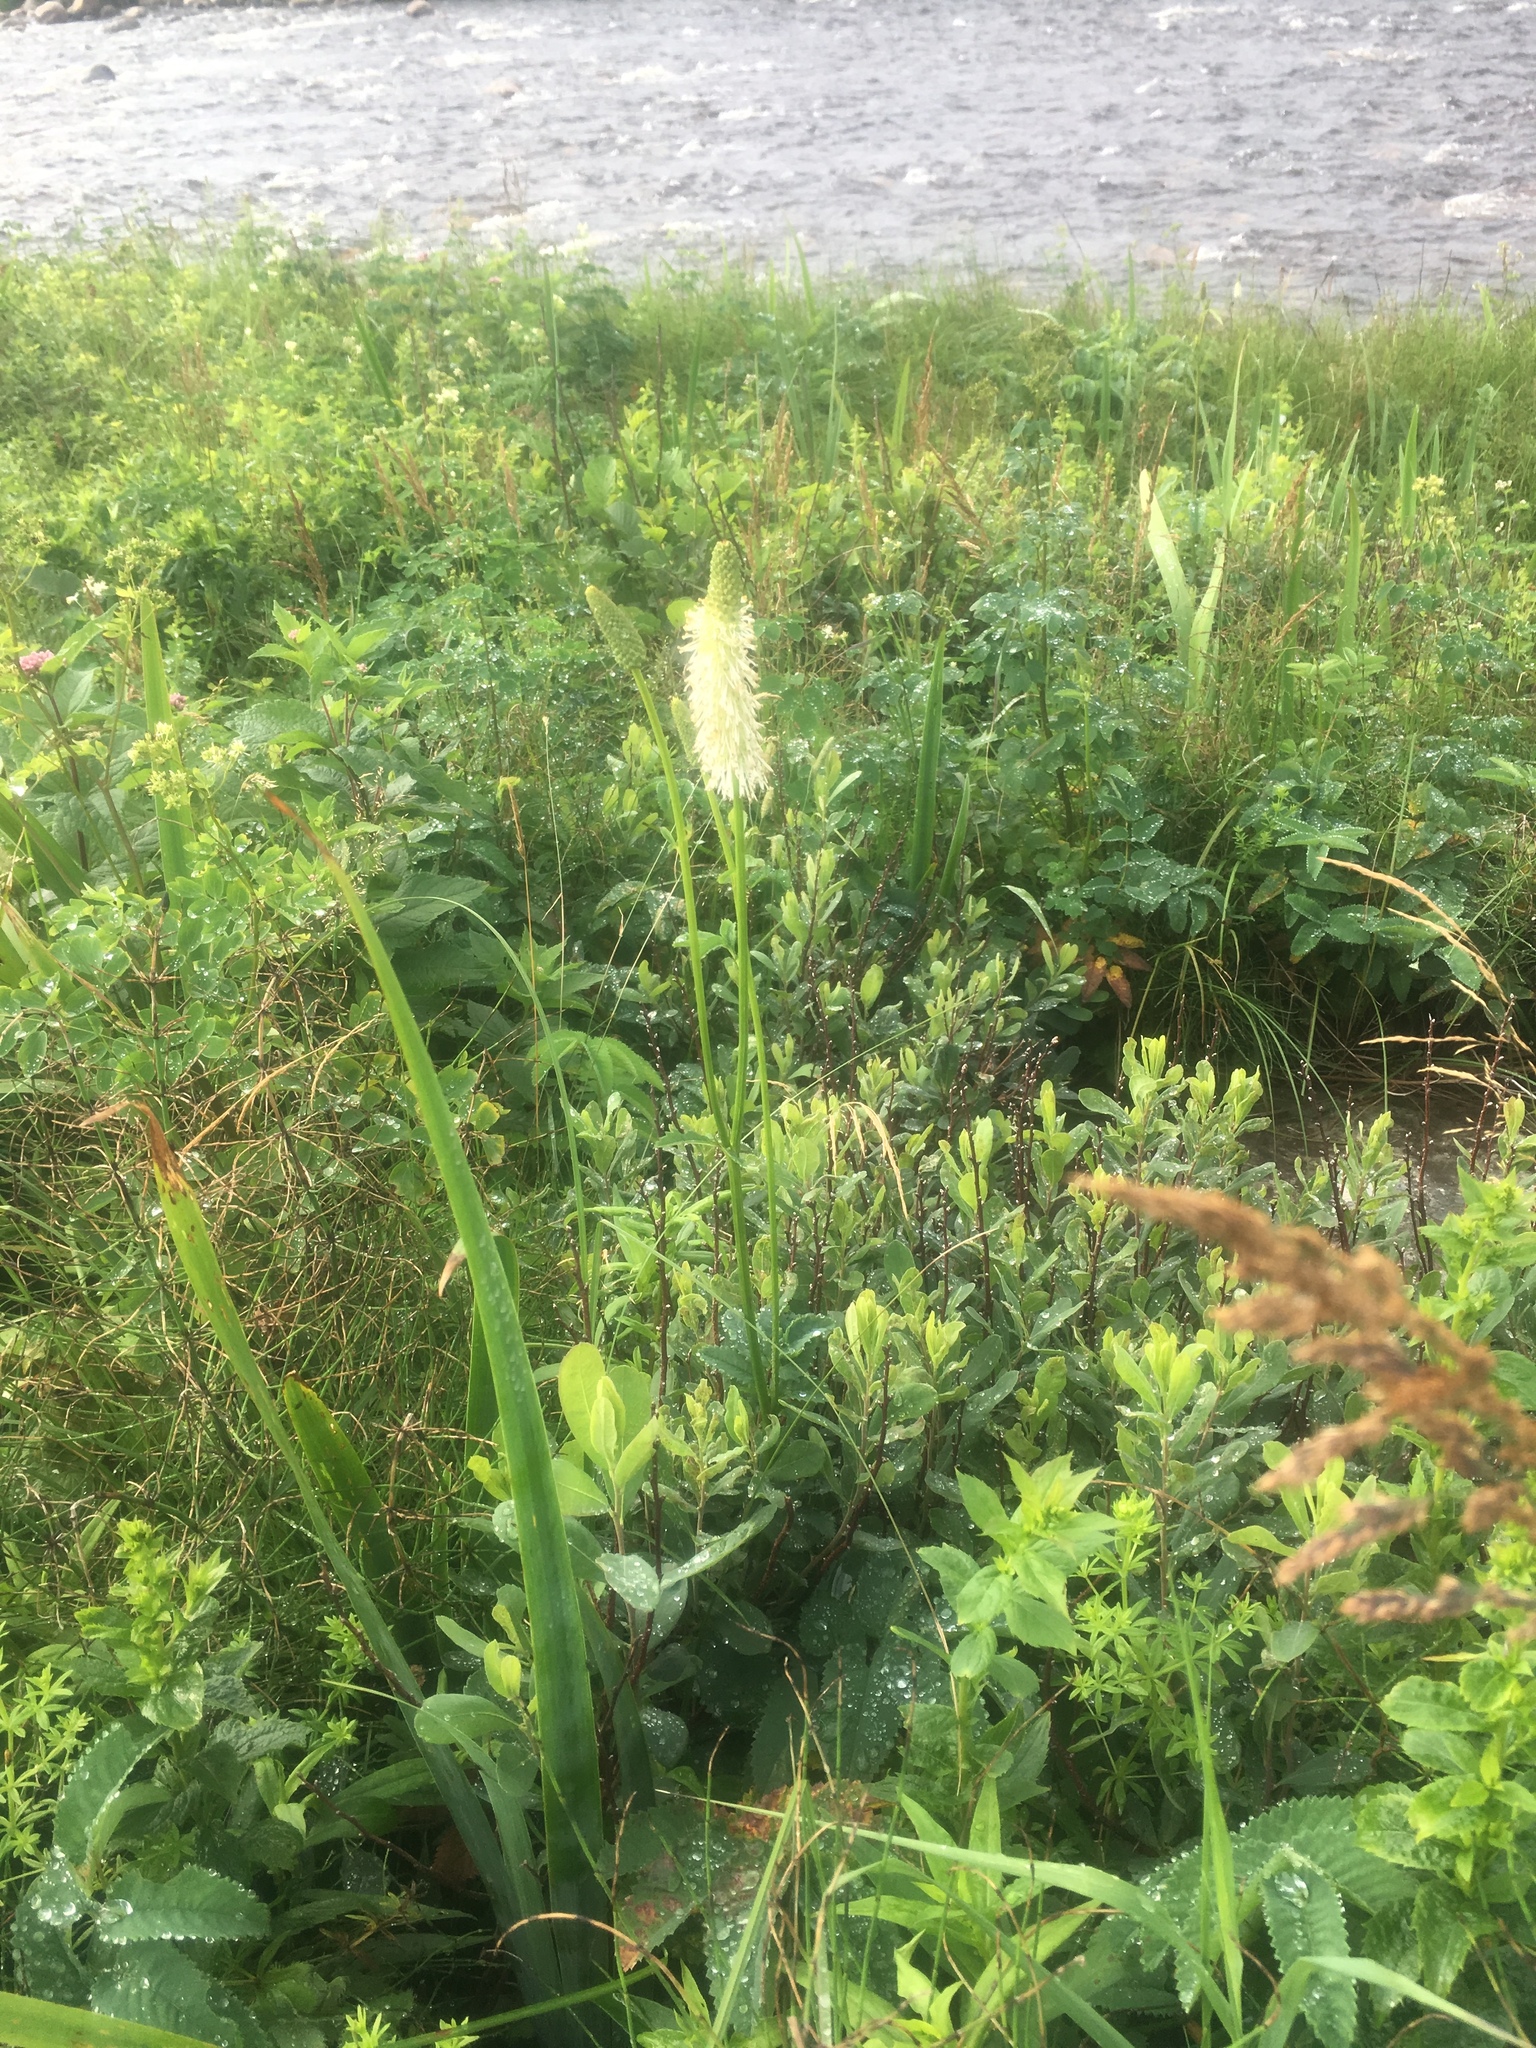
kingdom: Plantae
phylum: Tracheophyta
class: Magnoliopsida
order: Rosales
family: Rosaceae
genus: Sanguisorba
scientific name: Sanguisorba canadensis
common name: White burnet
